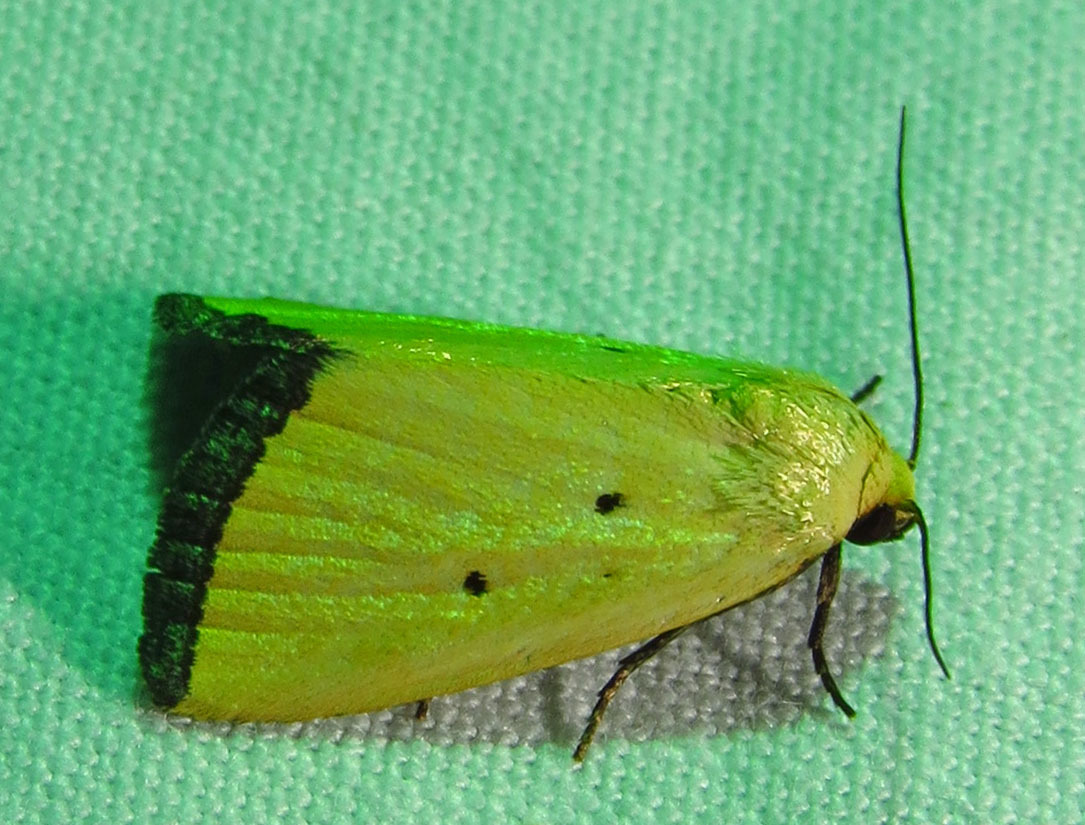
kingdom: Animalia
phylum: Arthropoda
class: Insecta
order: Lepidoptera
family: Noctuidae
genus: Marimatha
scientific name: Marimatha nigrofimbria
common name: Black-bordered lemon moth
